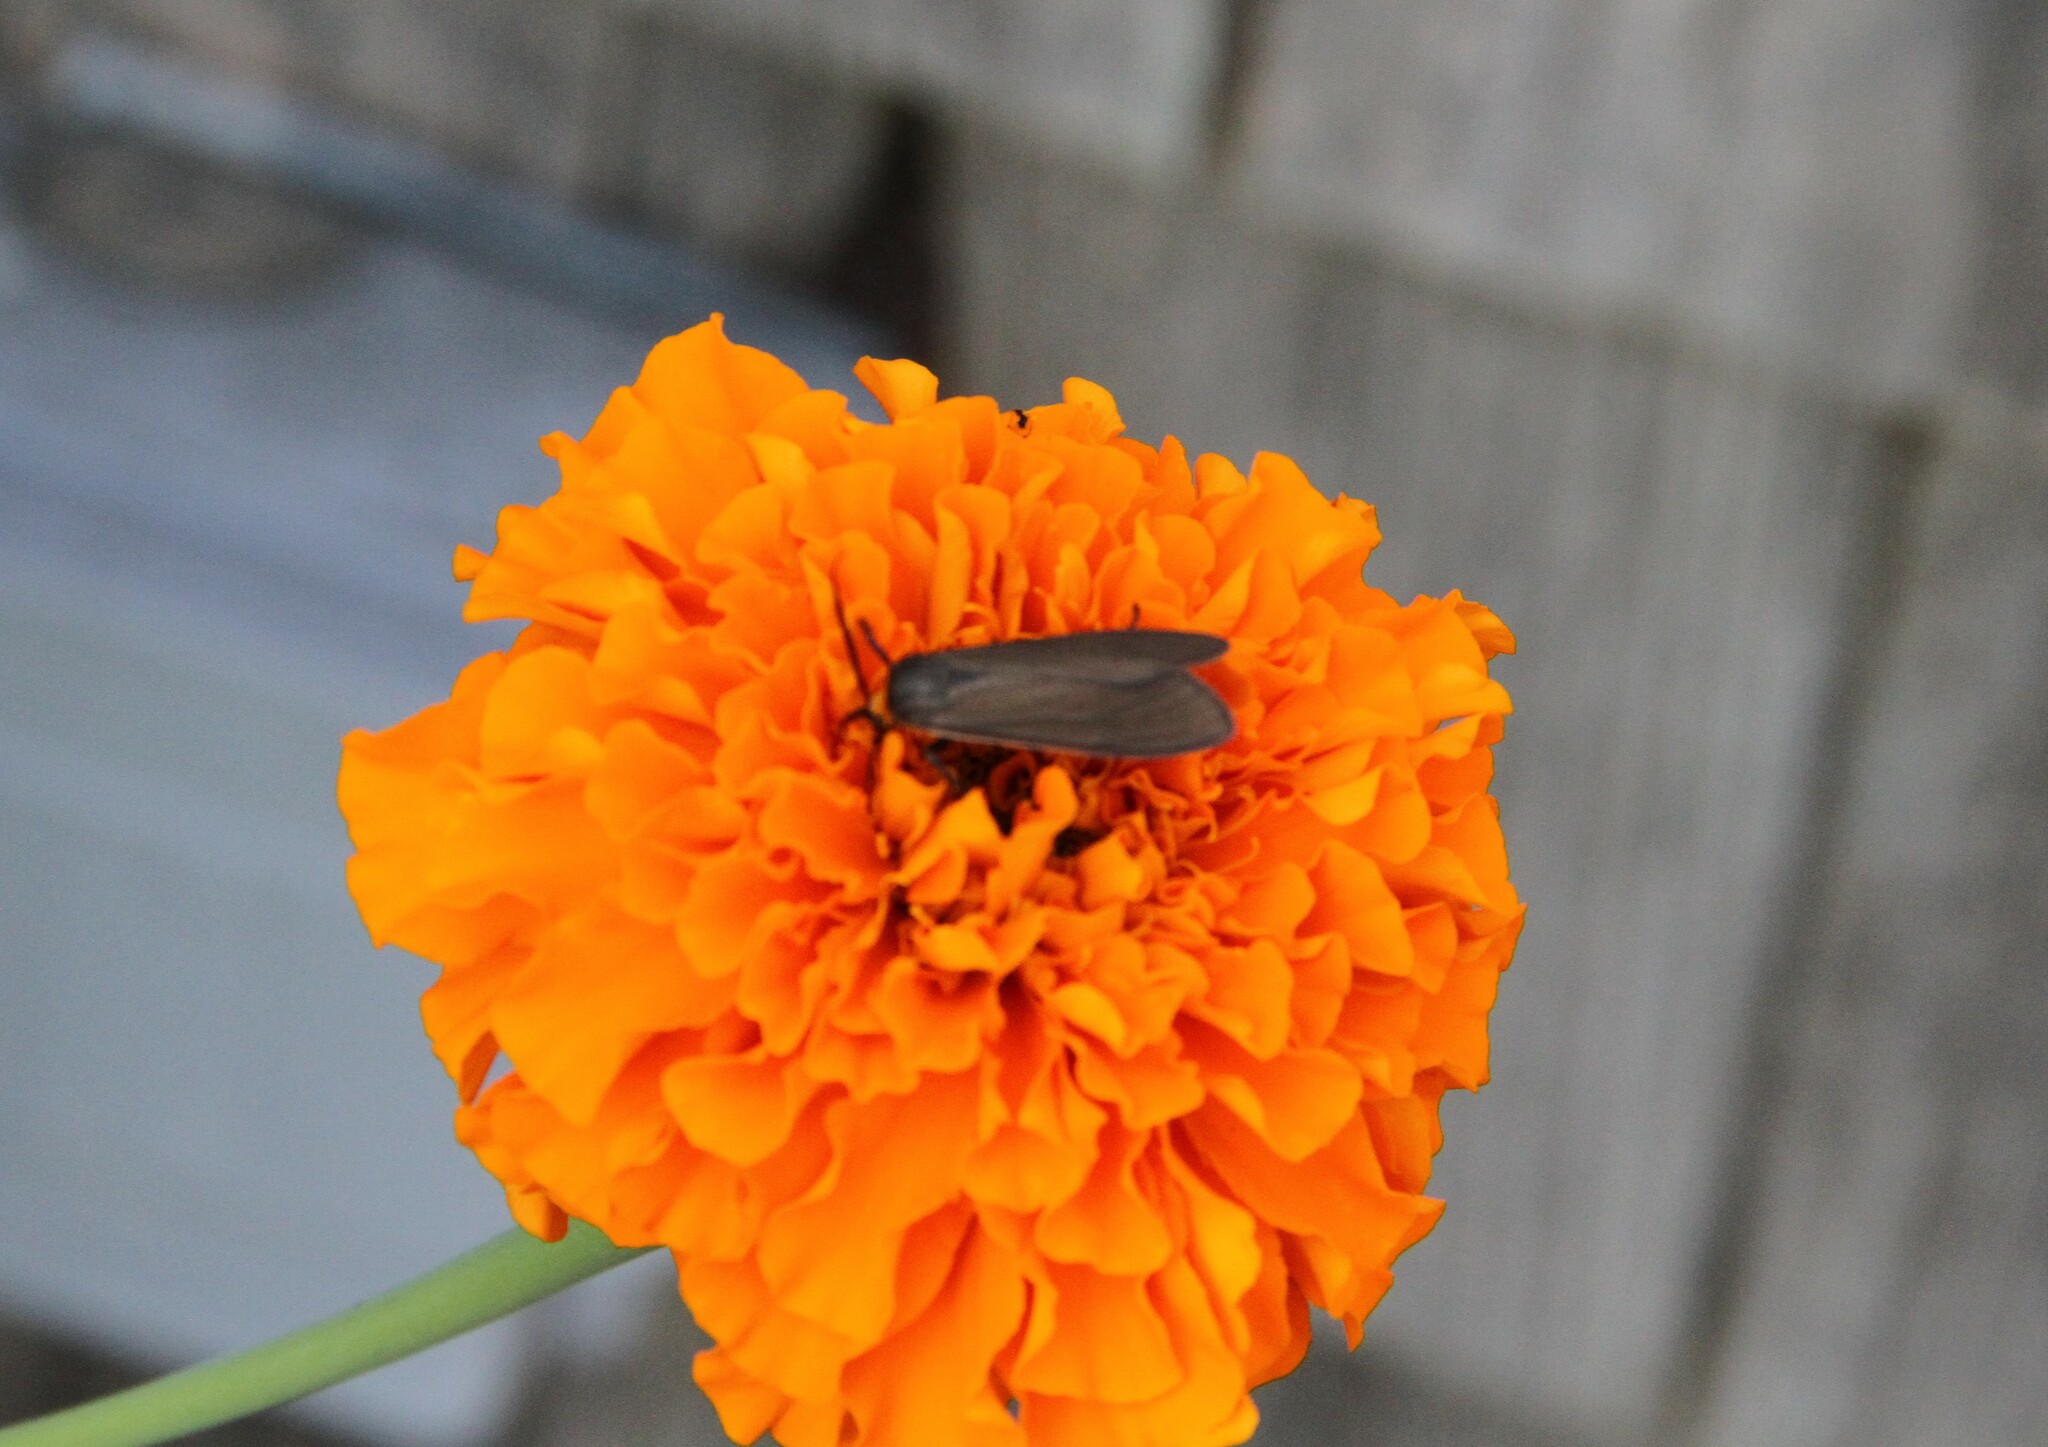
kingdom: Animalia
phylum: Arthropoda
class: Insecta
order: Lepidoptera
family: Erebidae
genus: Cisseps
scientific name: Cisseps fulvicollis
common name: Yellow-collared scape moth
